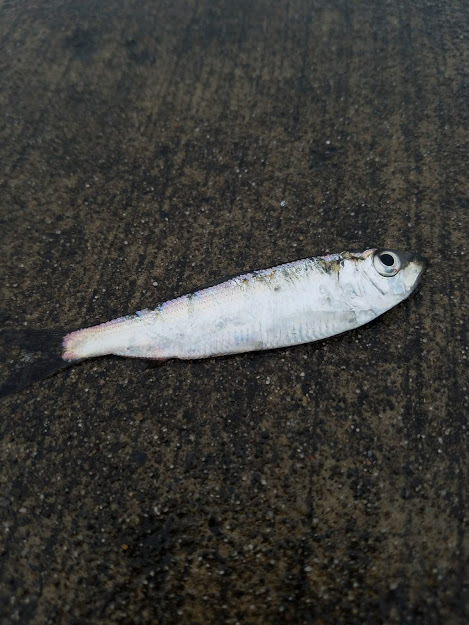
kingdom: Animalia
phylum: Chordata
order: Clupeiformes
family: Clupeidae
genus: Alosa
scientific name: Alosa pseudoharengus
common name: Alewife
